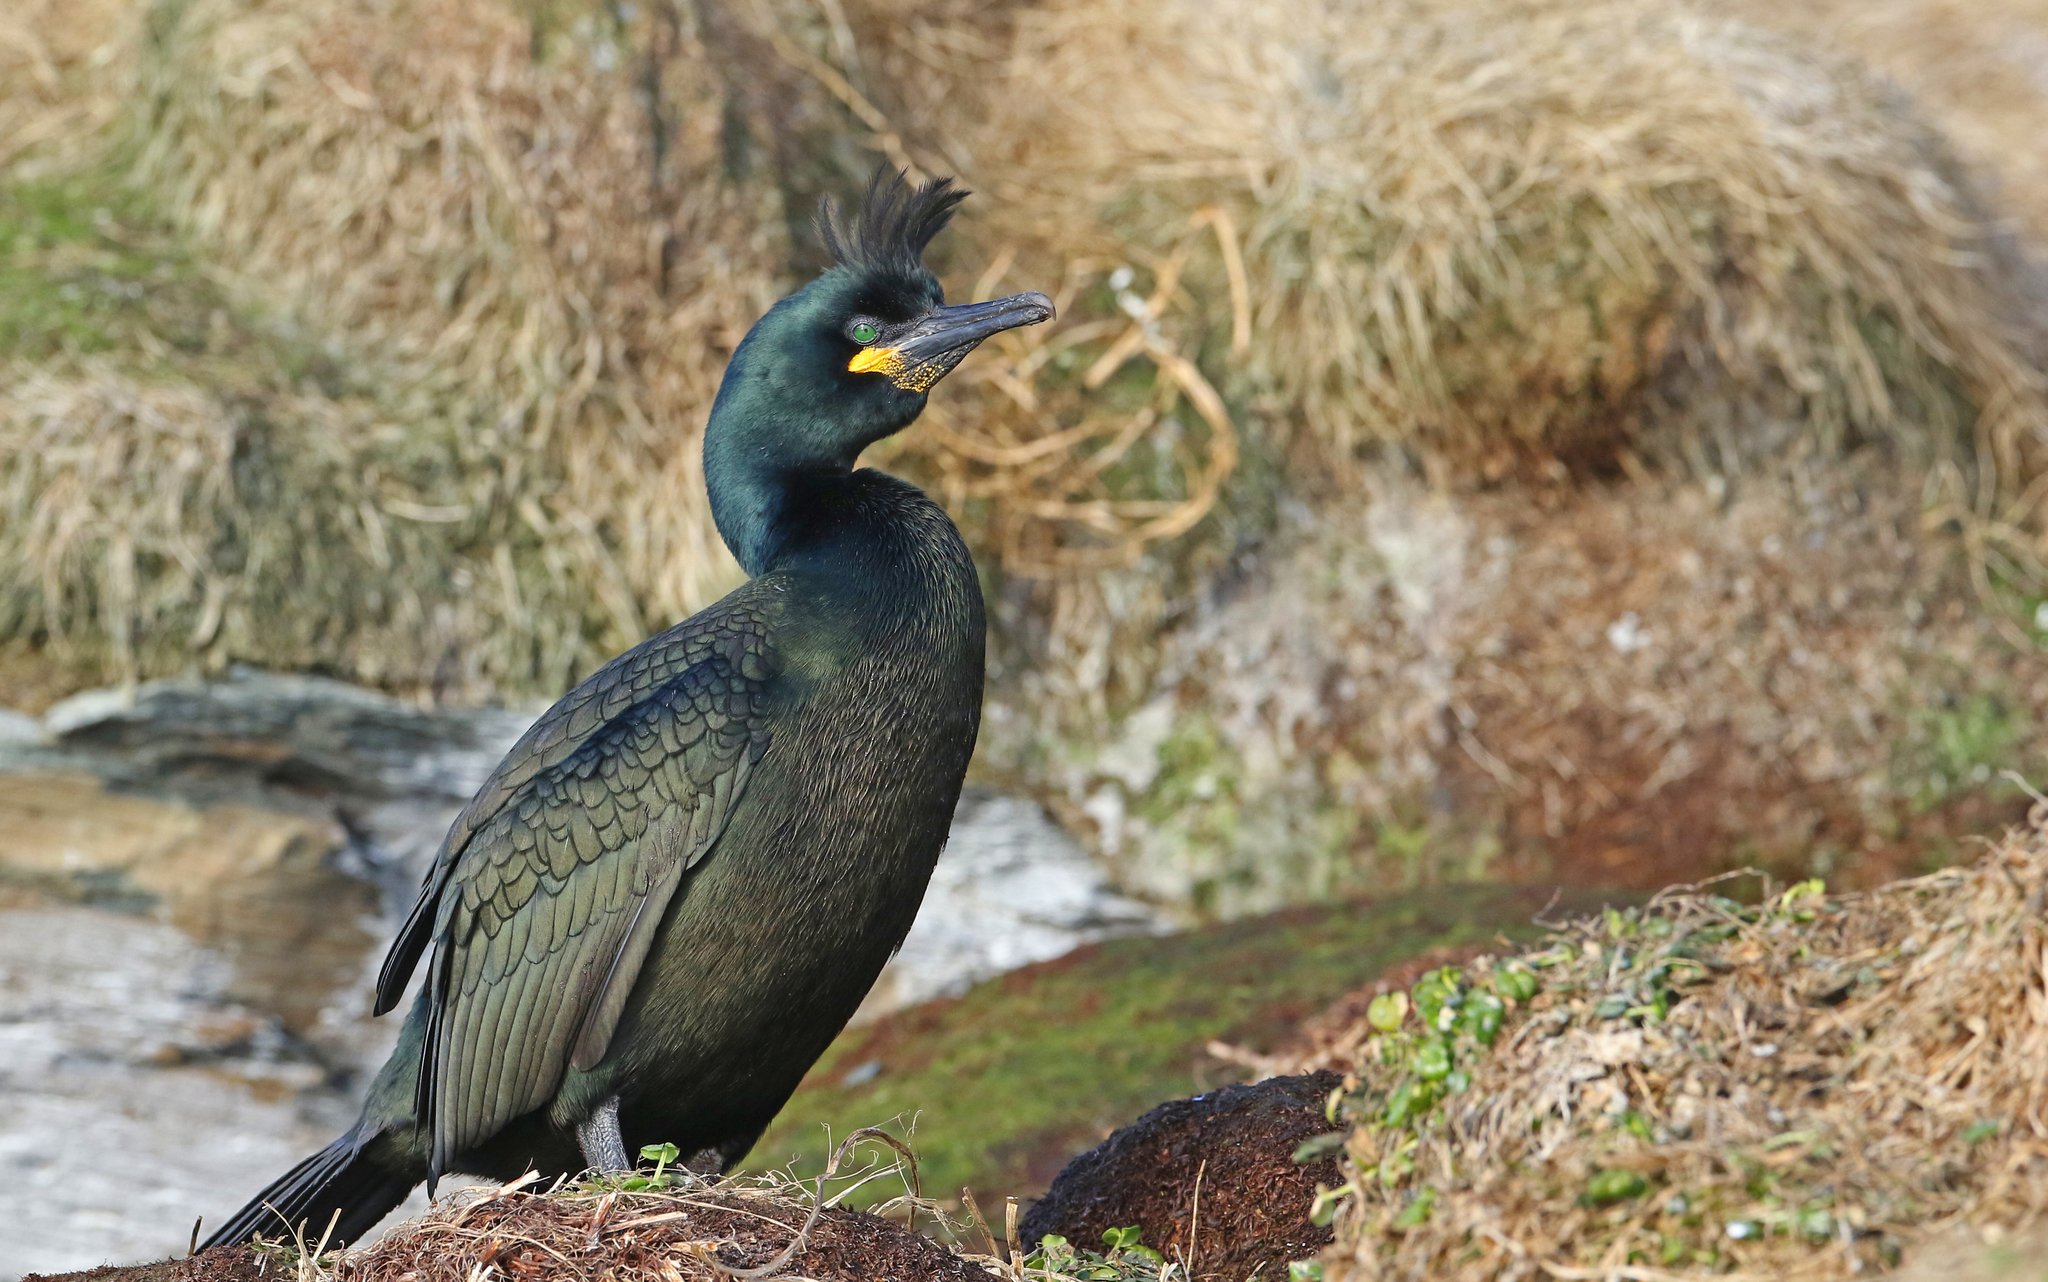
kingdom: Animalia
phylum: Chordata
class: Aves
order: Suliformes
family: Phalacrocoracidae
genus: Phalacrocorax
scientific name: Phalacrocorax aristotelis
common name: European shag
